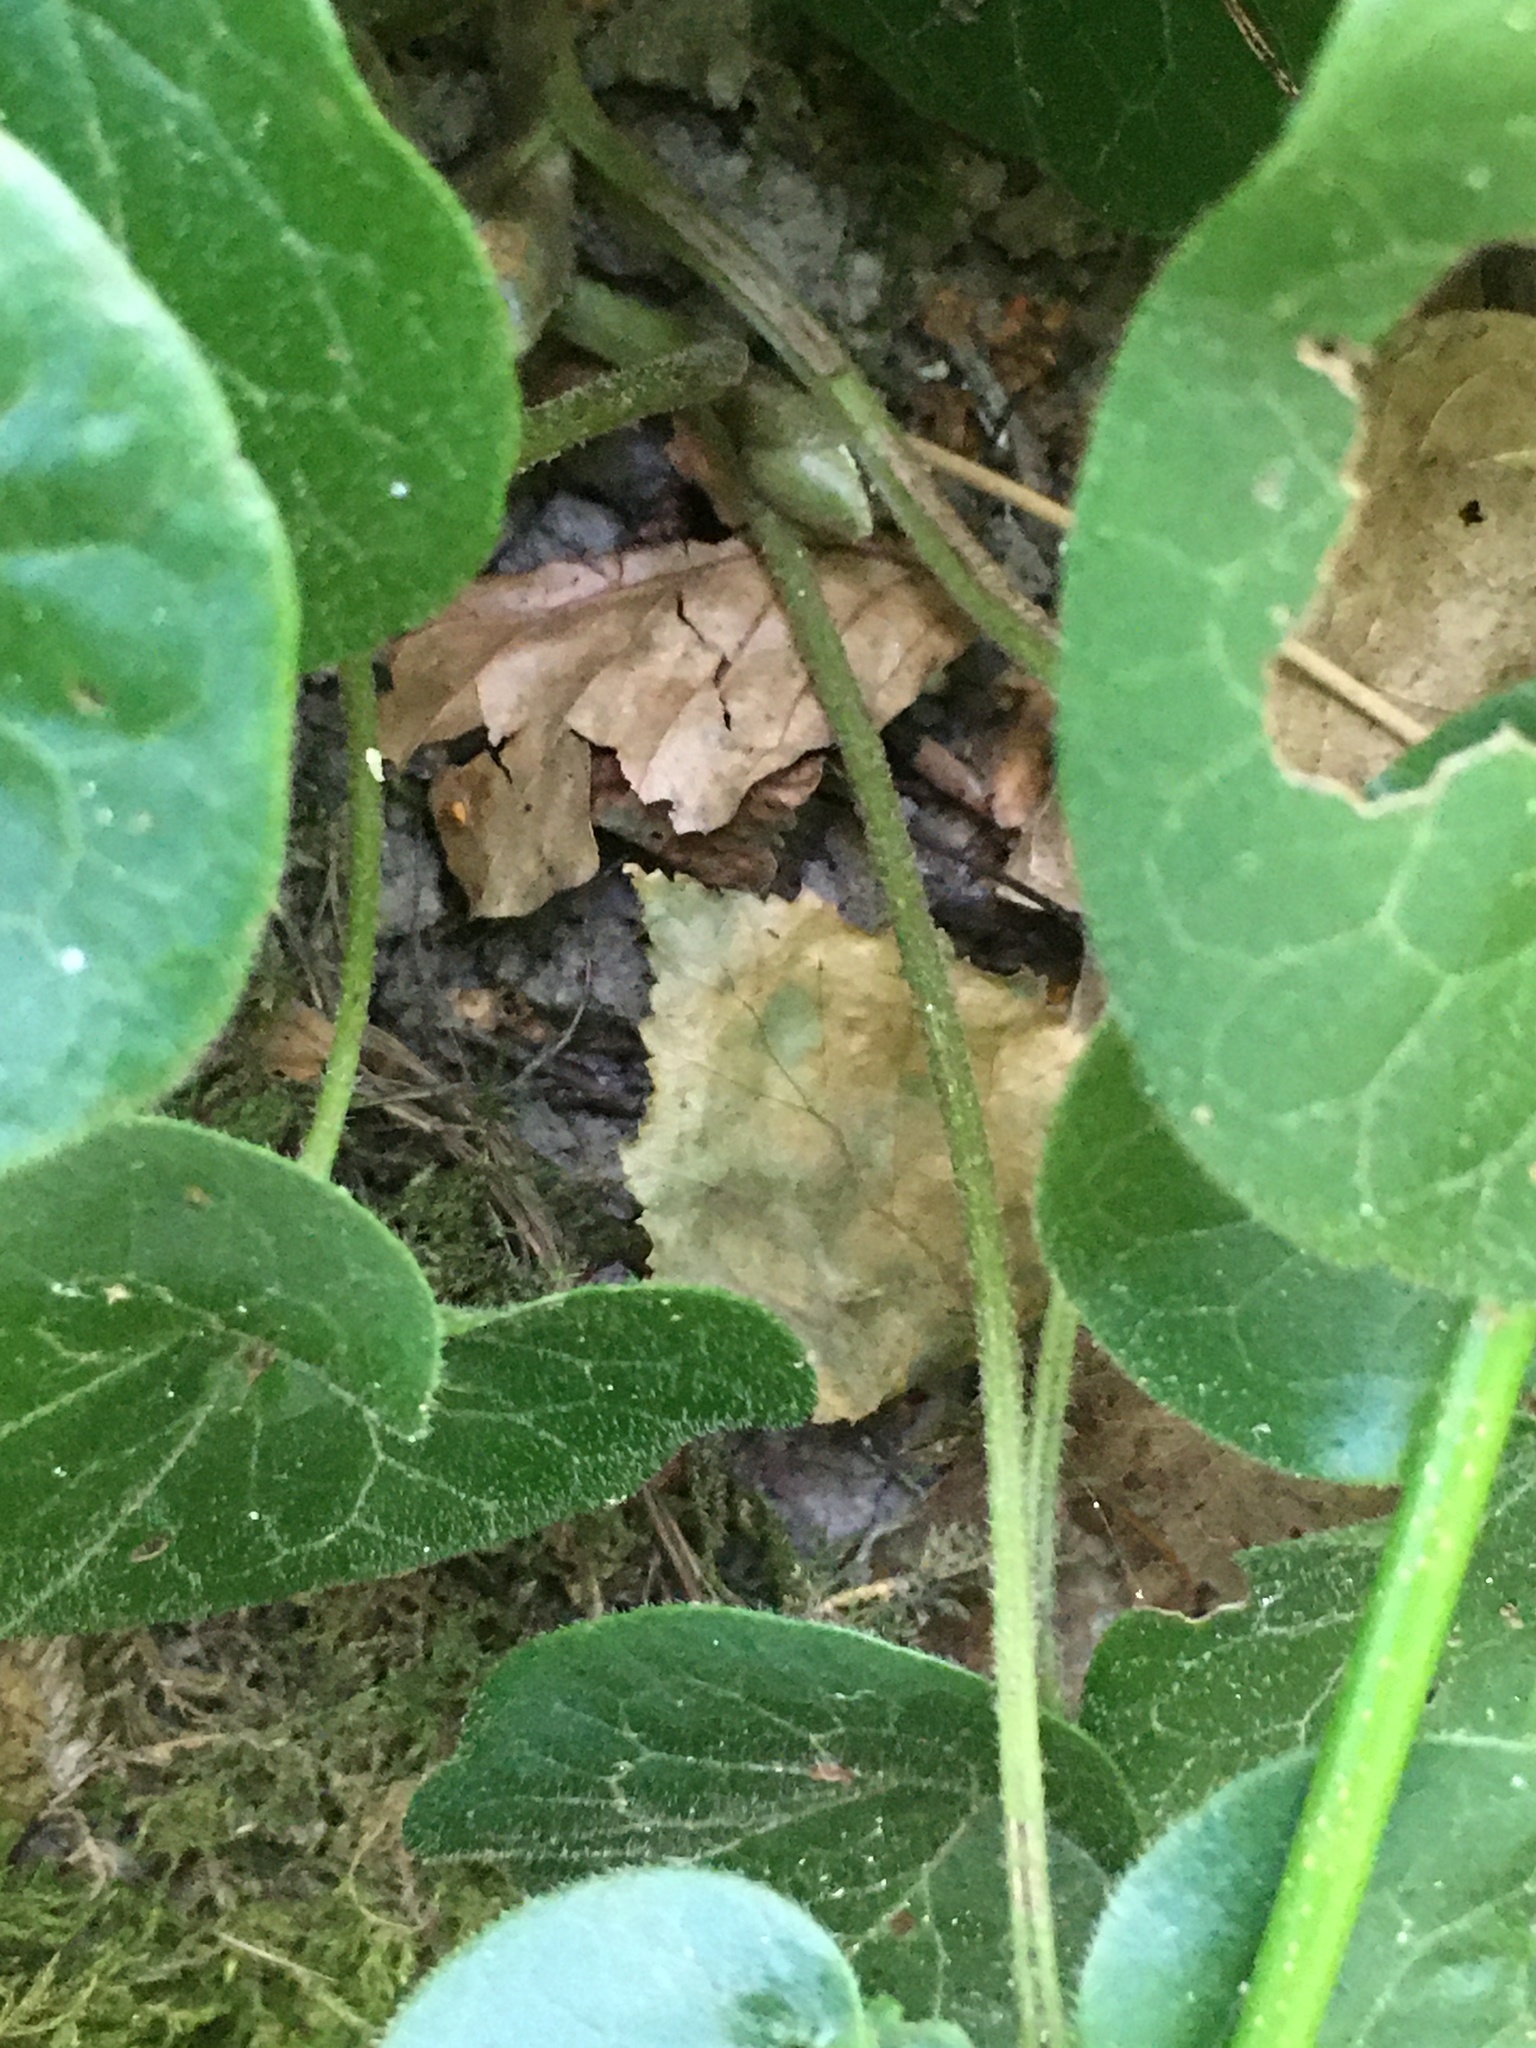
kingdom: Plantae
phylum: Tracheophyta
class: Magnoliopsida
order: Piperales
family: Aristolochiaceae
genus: Asarum
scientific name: Asarum europaeum
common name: Asarabacca
